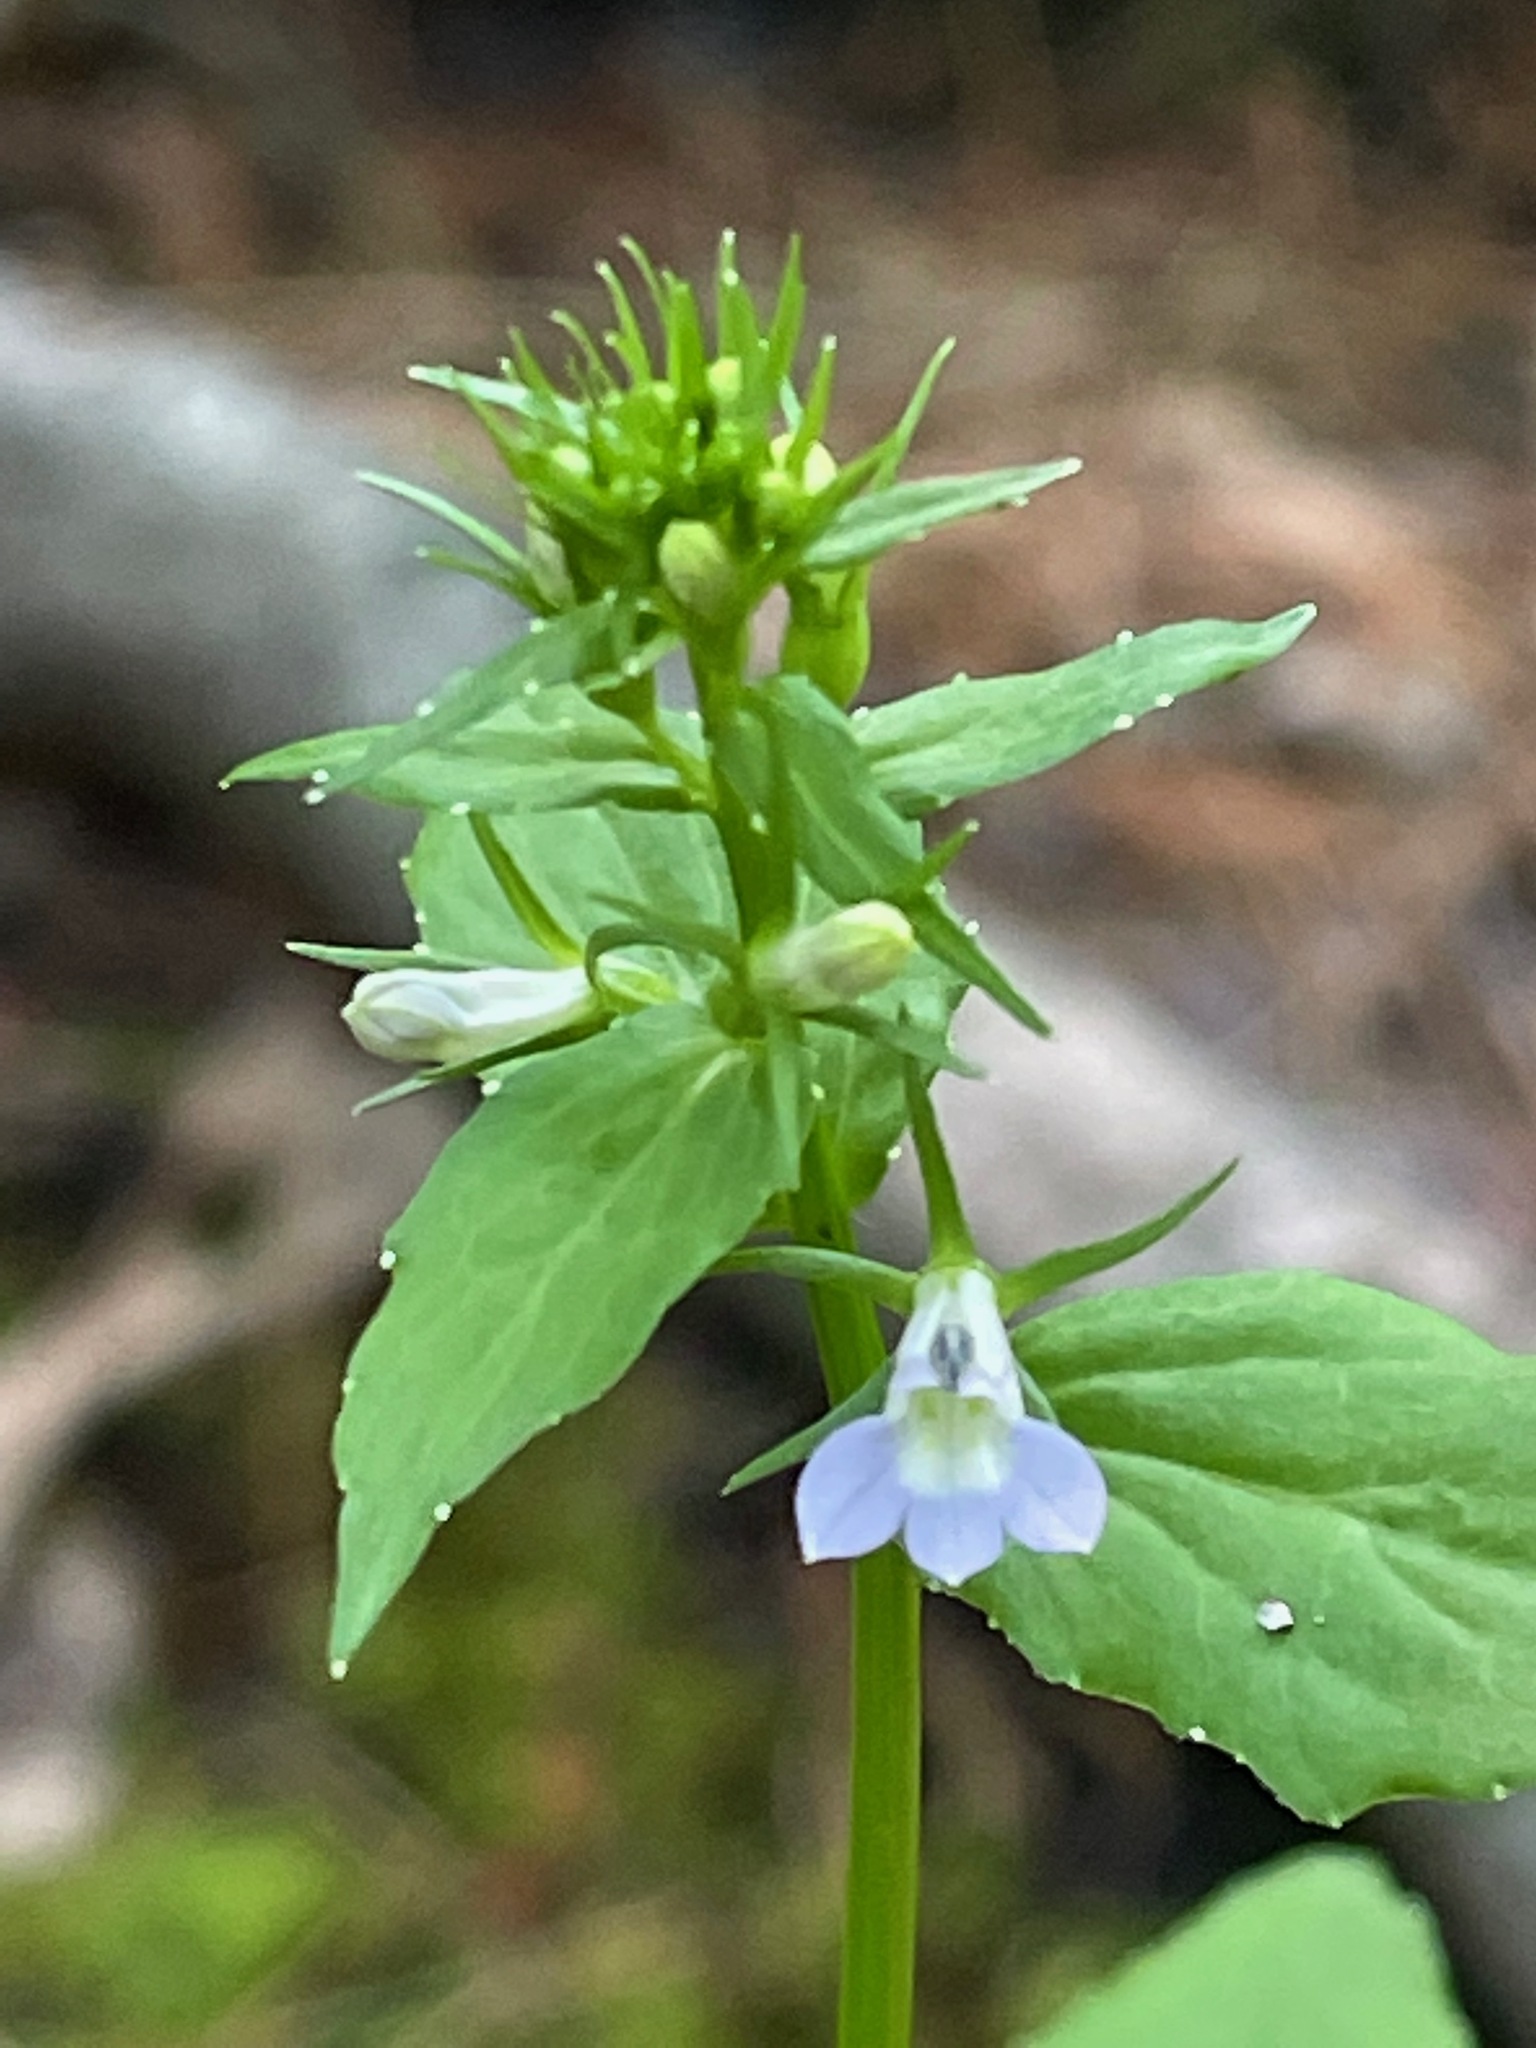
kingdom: Plantae
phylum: Tracheophyta
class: Magnoliopsida
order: Asterales
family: Campanulaceae
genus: Lobelia
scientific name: Lobelia inflata
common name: Indian tobacco
